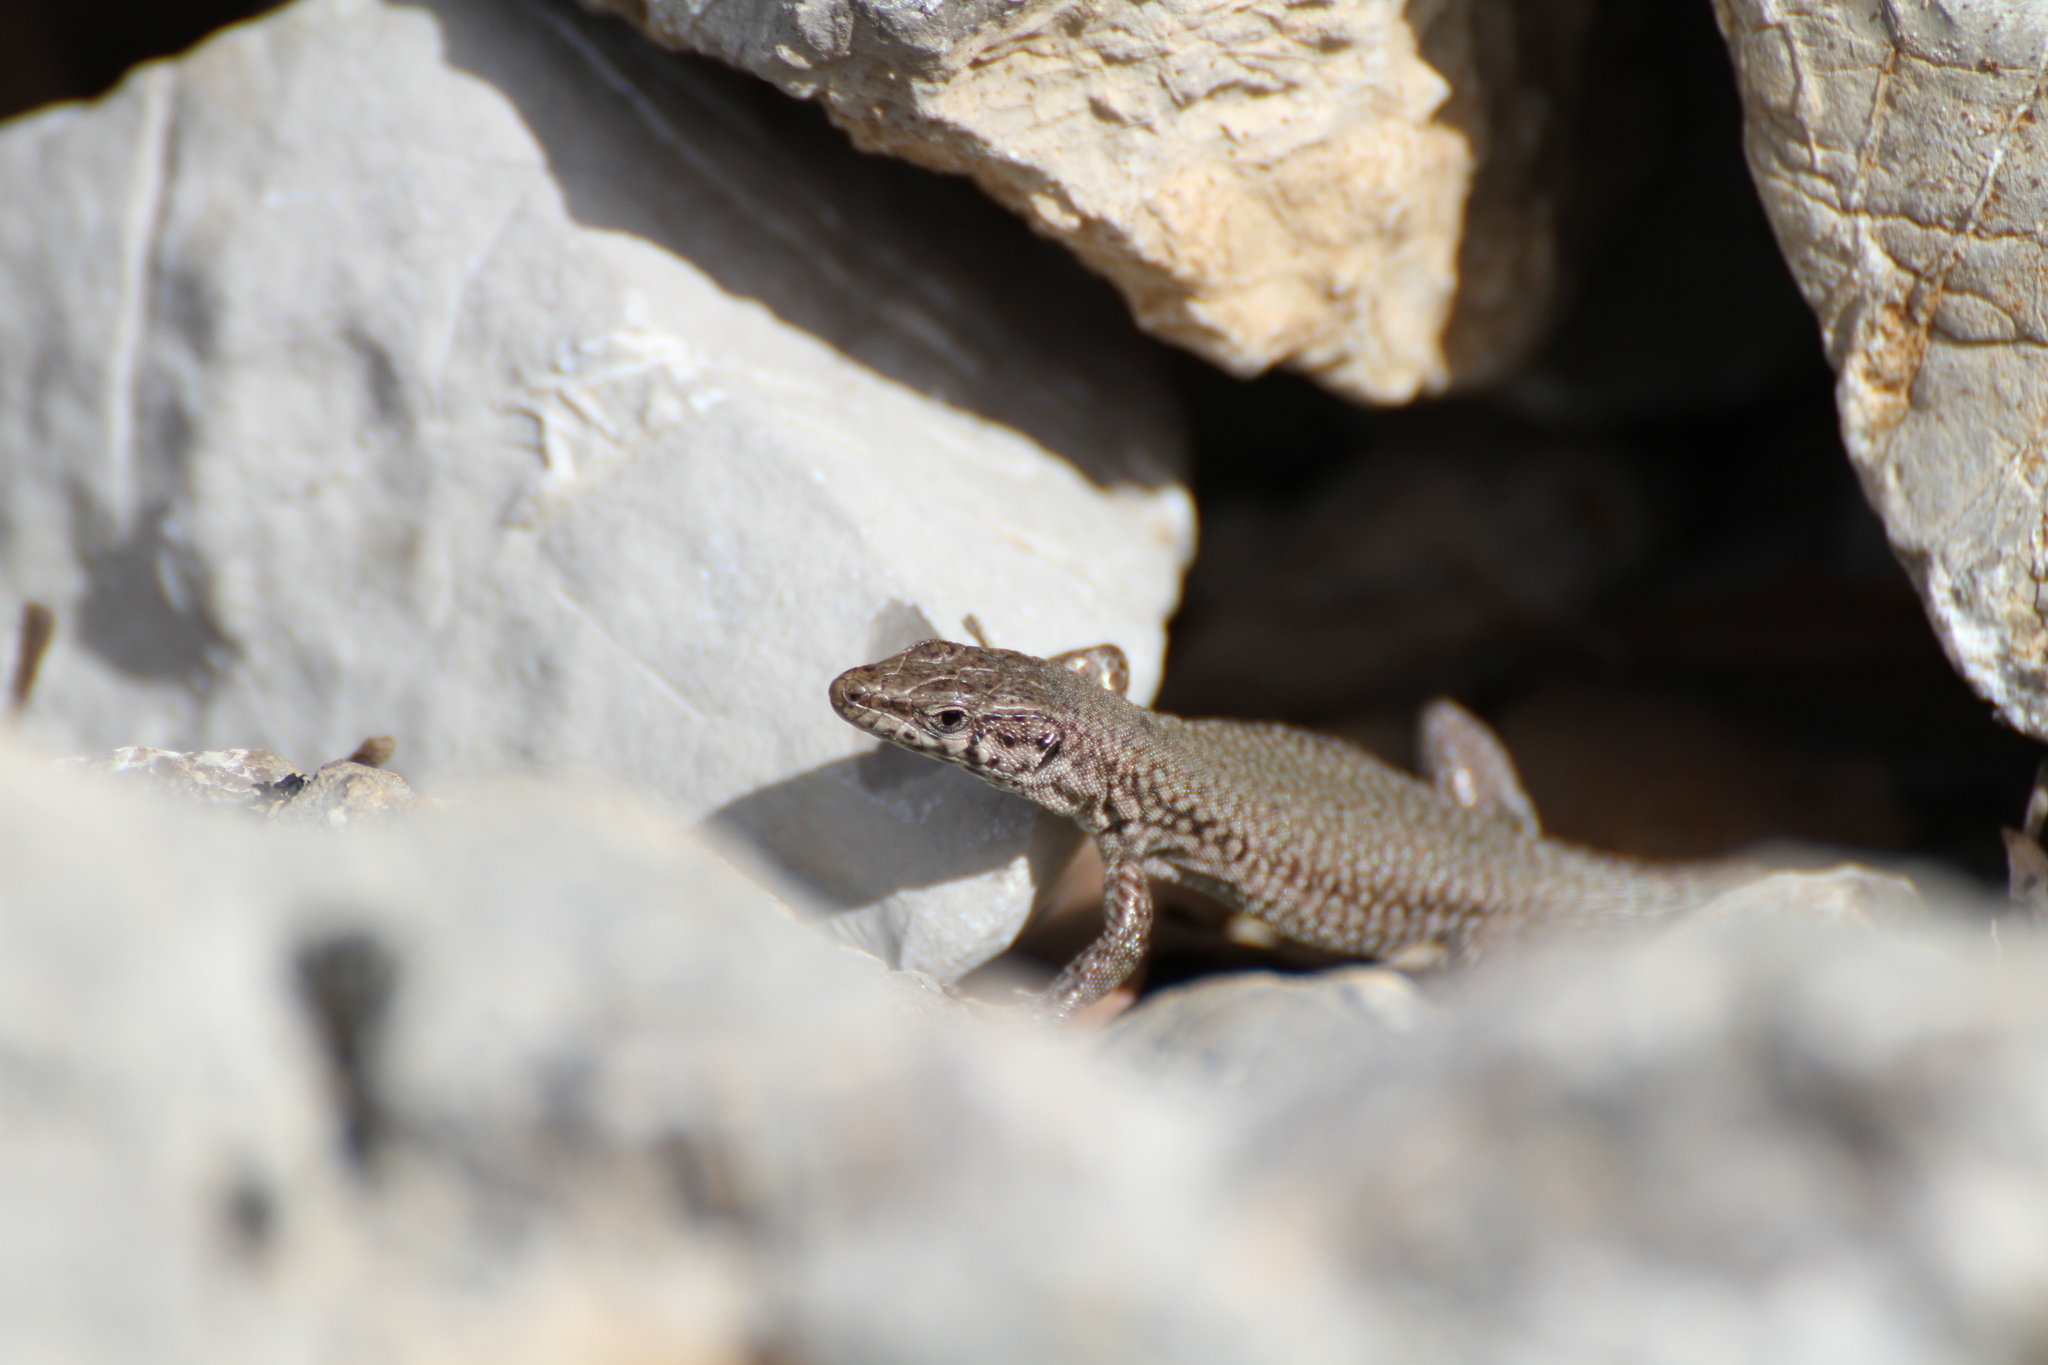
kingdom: Animalia
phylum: Chordata
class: Squamata
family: Lacertidae
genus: Podarcis
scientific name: Podarcis liolepis
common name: Catalonian wall lizard
